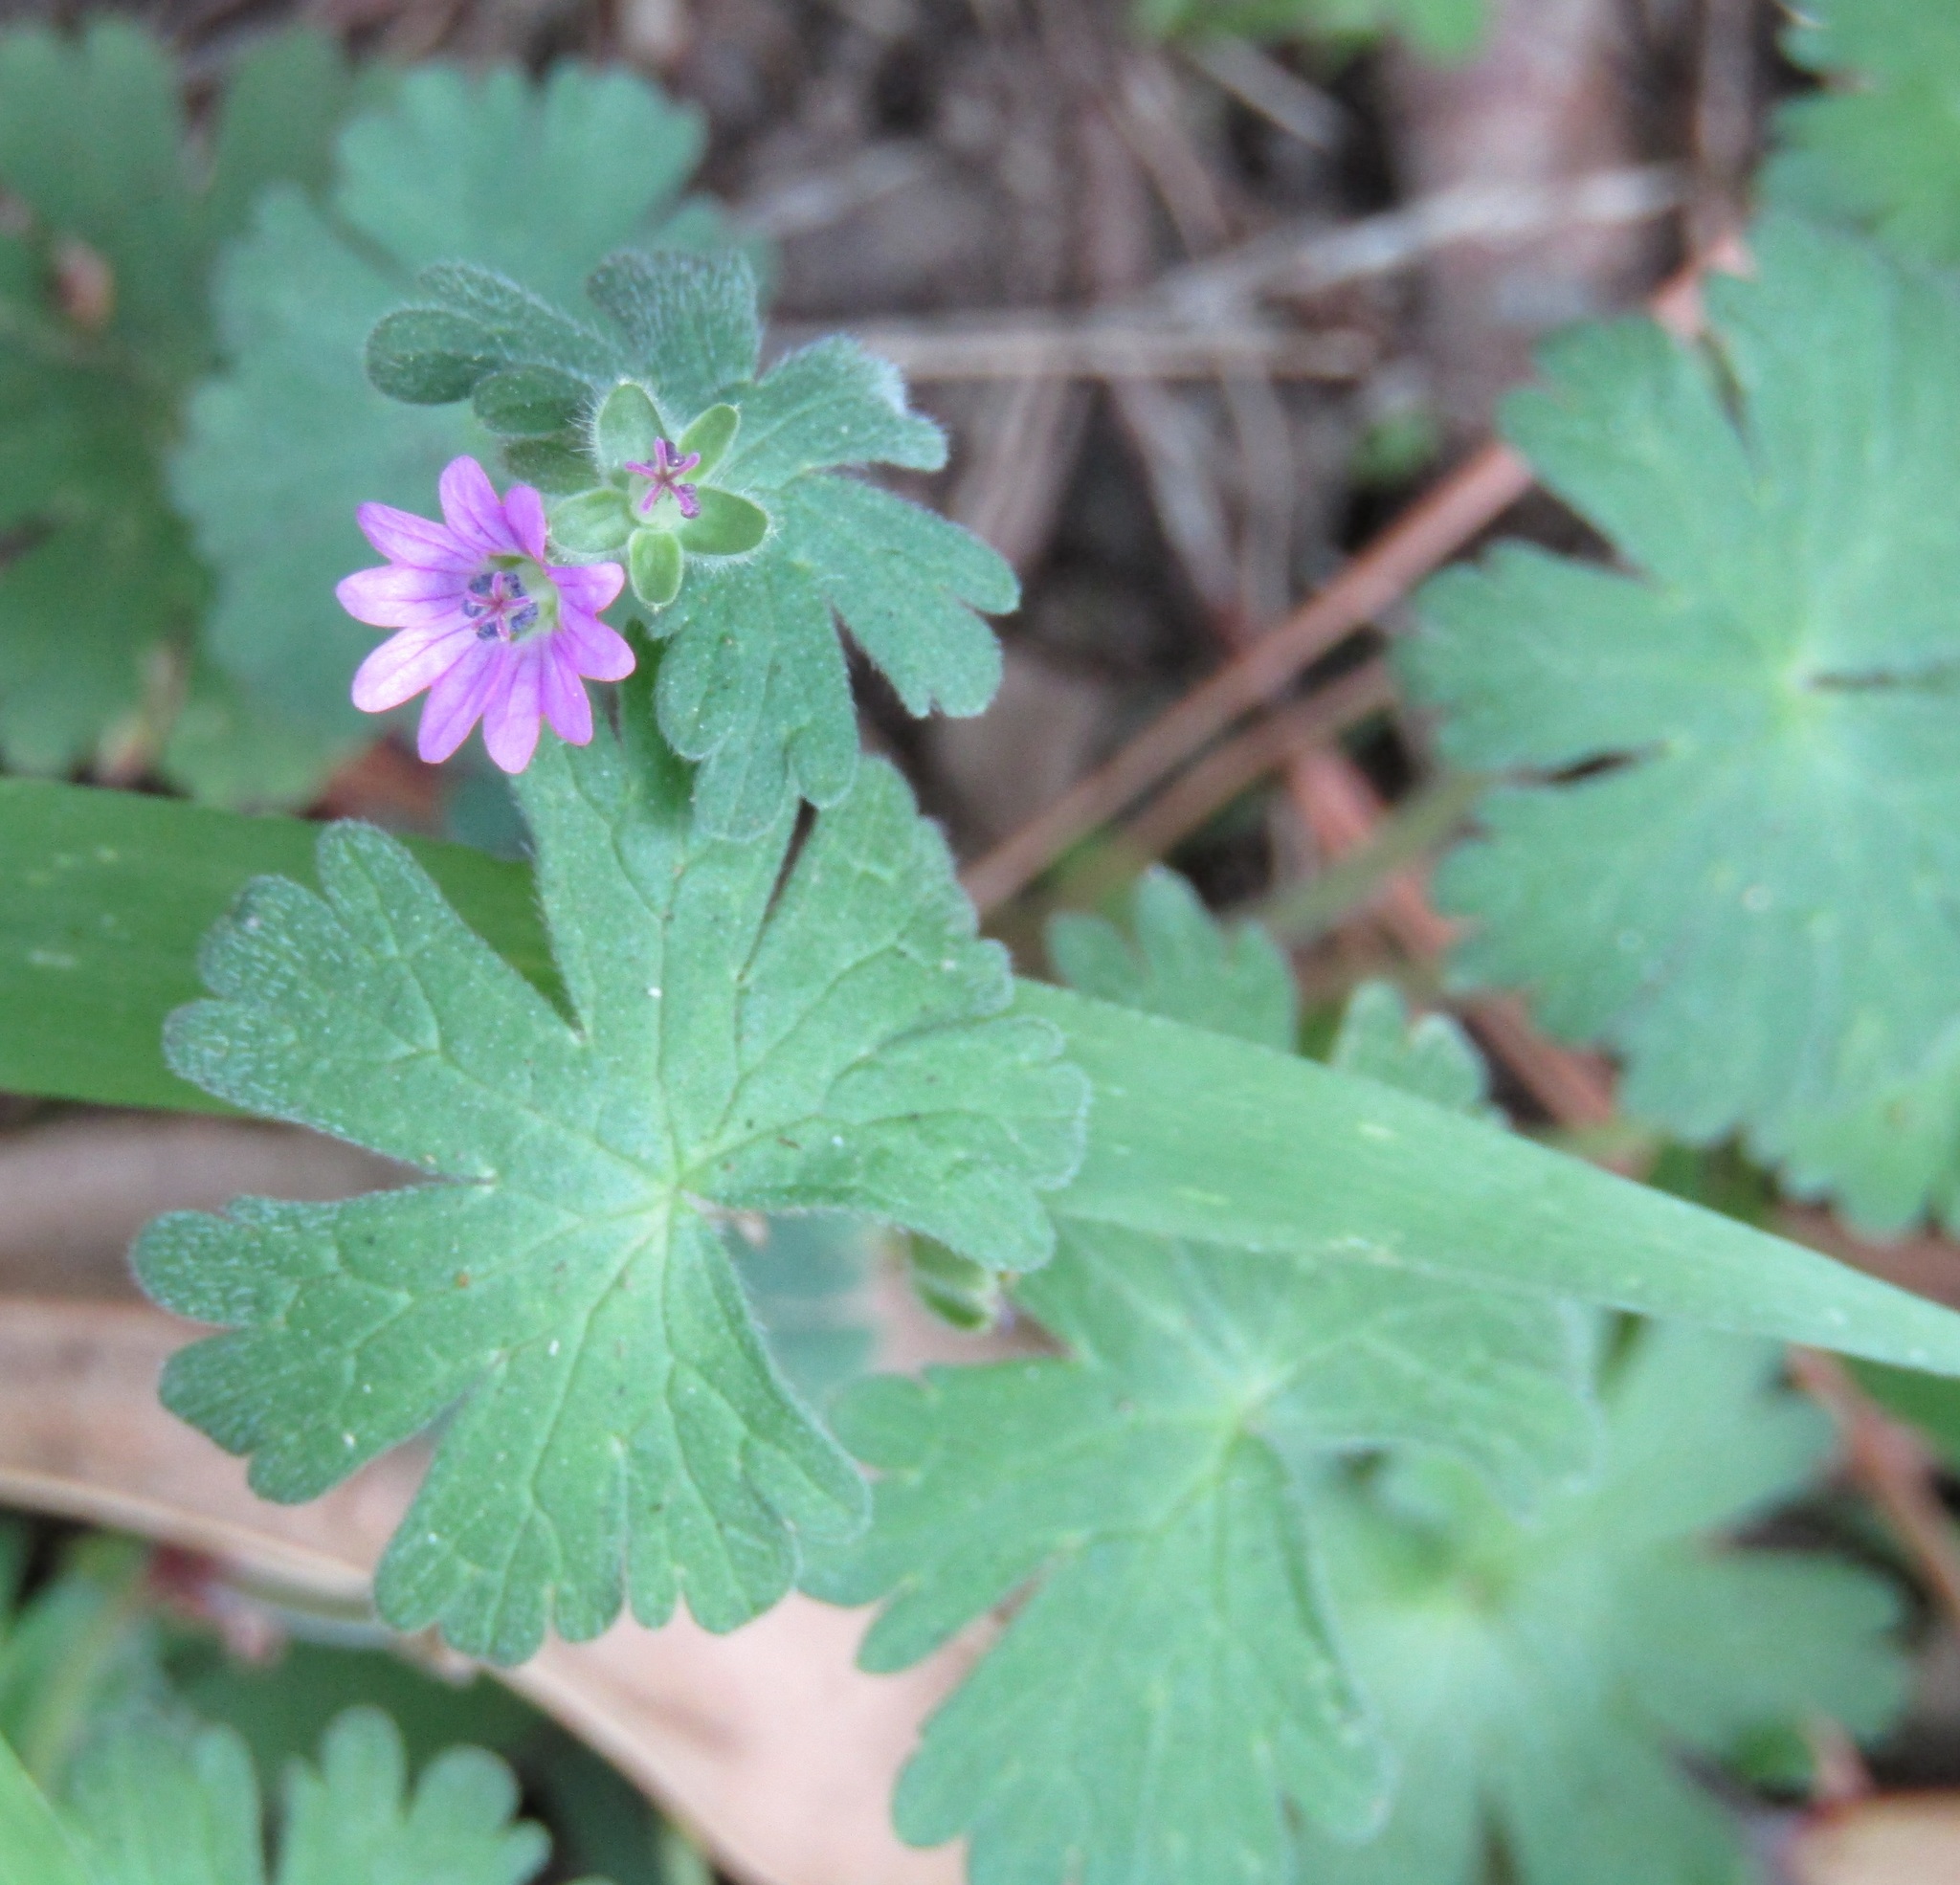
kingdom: Plantae
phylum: Tracheophyta
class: Magnoliopsida
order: Geraniales
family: Geraniaceae
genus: Geranium
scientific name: Geranium molle
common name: Dove's-foot crane's-bill
